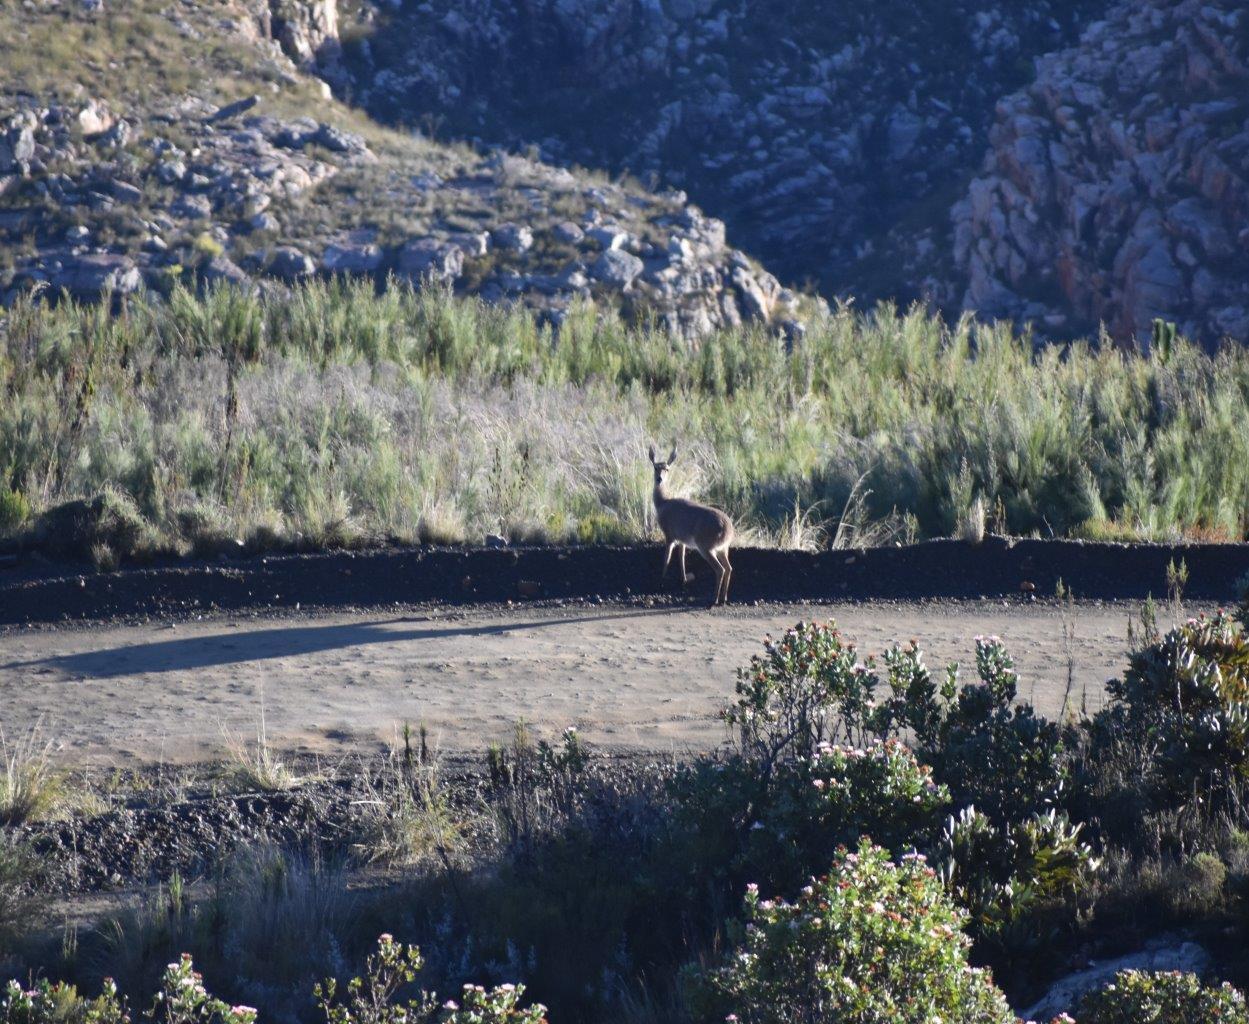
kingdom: Animalia
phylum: Chordata
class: Mammalia
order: Artiodactyla
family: Bovidae
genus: Pelea
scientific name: Pelea capreolus
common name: Common rhebok
